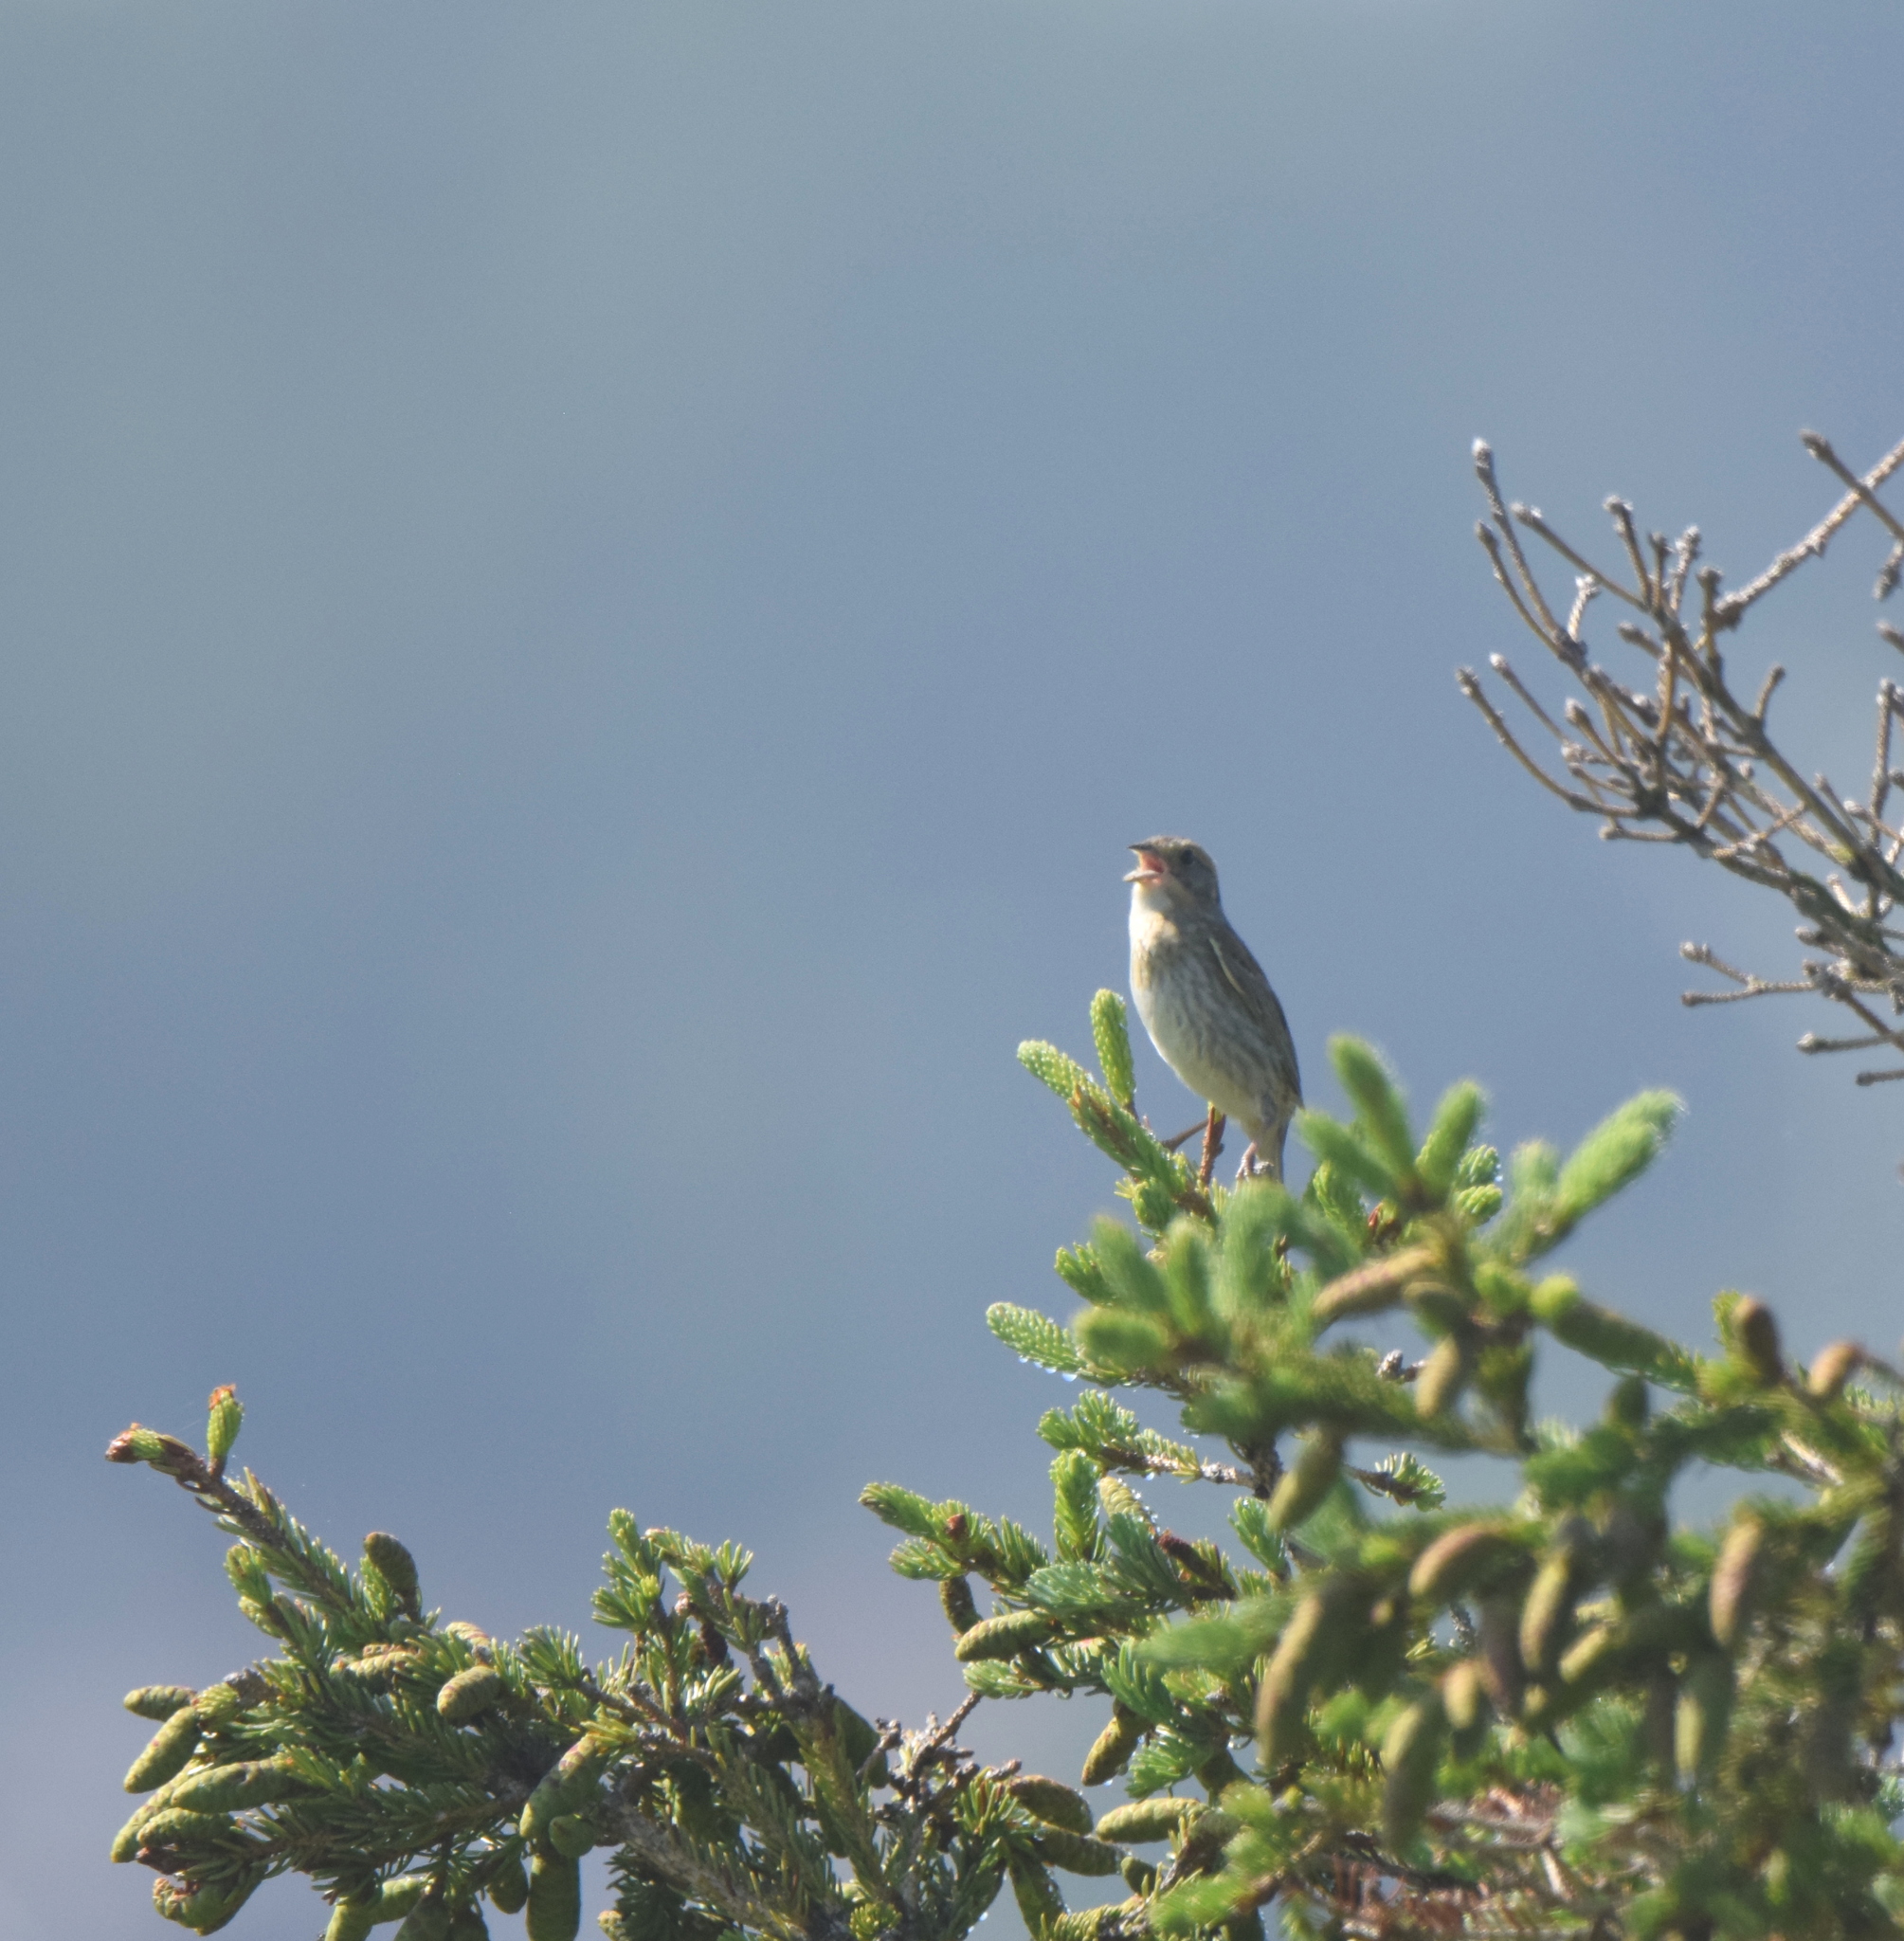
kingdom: Animalia
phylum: Chordata
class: Aves
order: Passeriformes
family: Passerellidae
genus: Ammospiza
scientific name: Ammospiza nelsoni
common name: Nelson's sparrow
